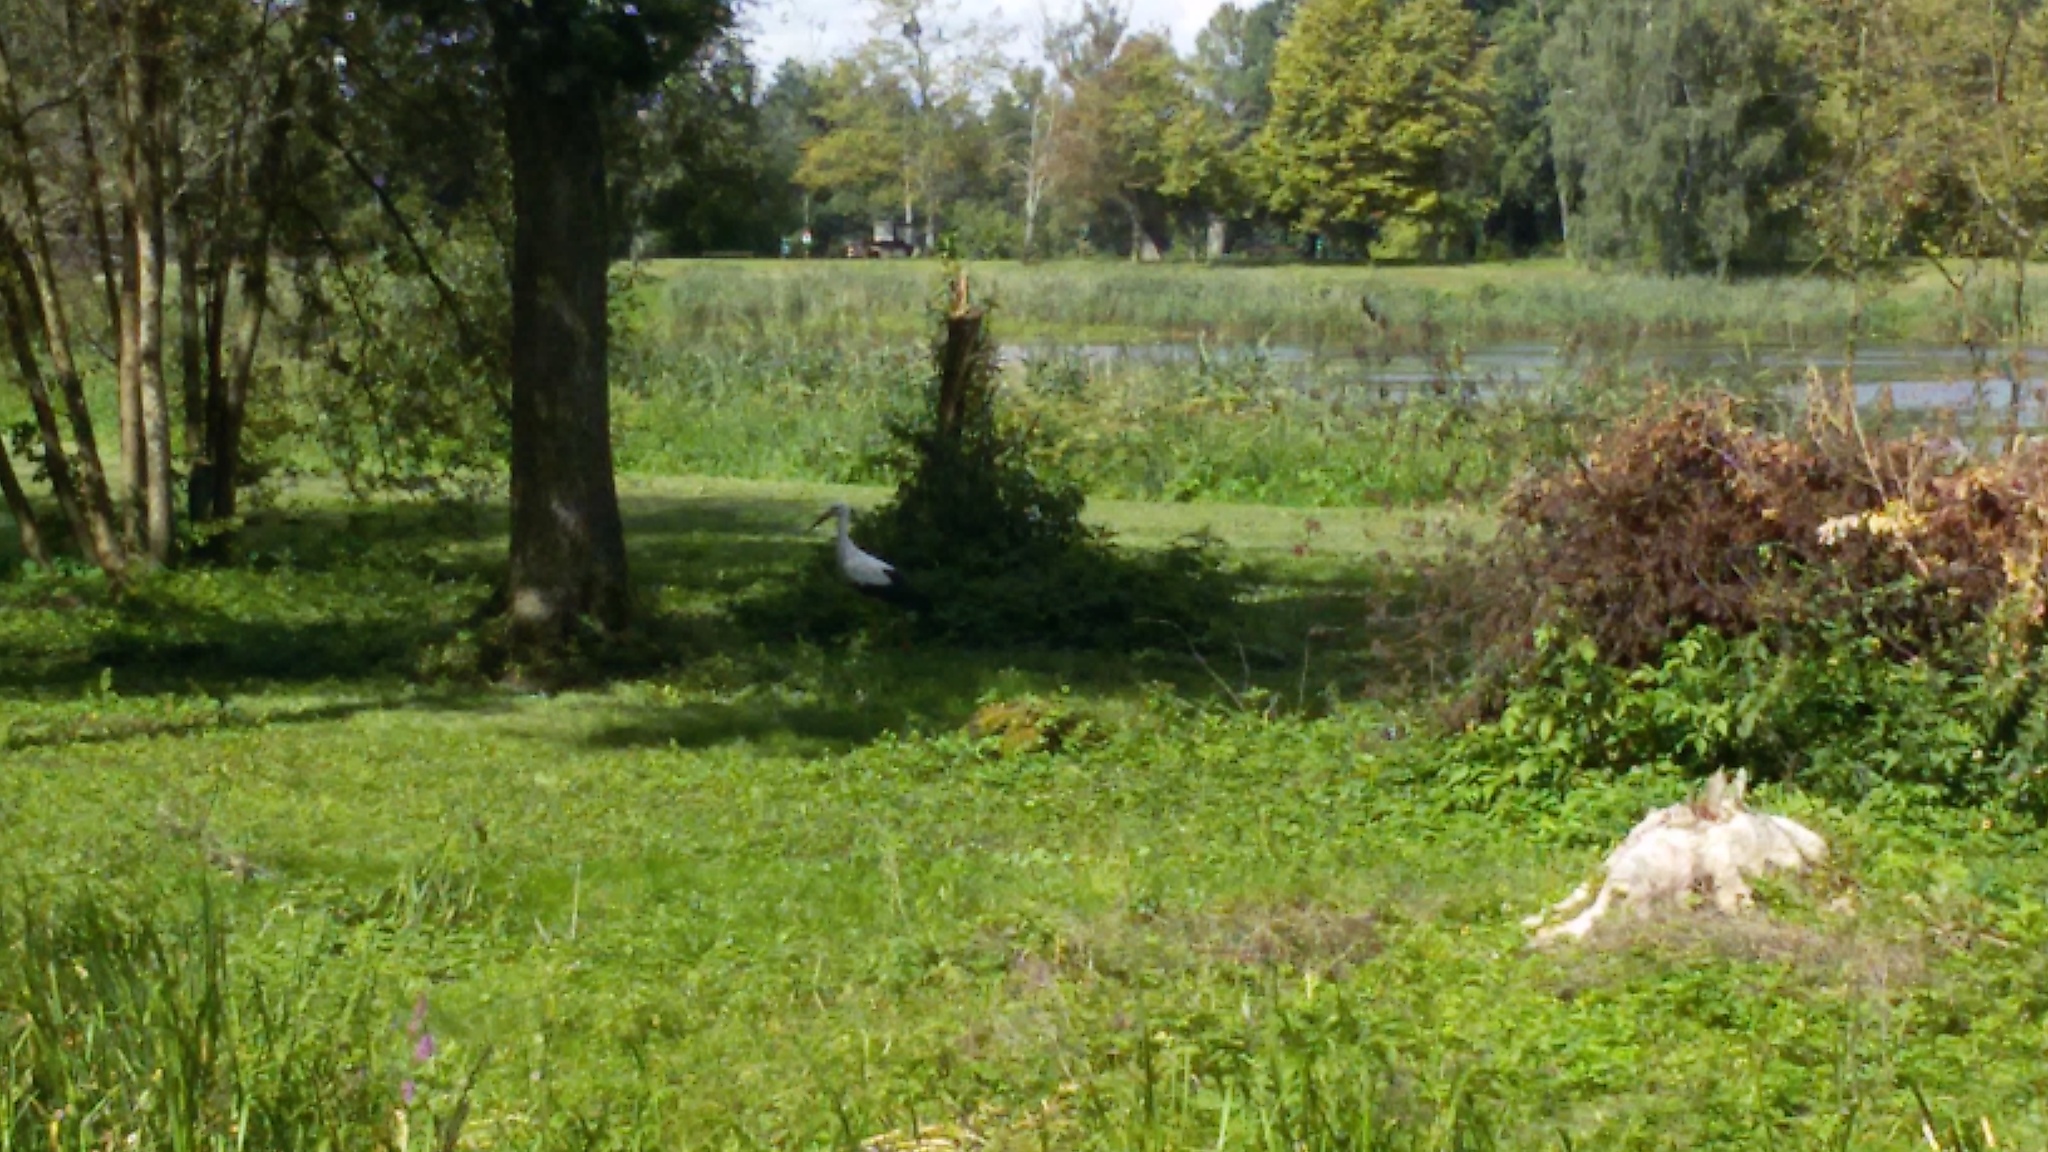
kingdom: Animalia
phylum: Chordata
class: Aves
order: Ciconiiformes
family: Ciconiidae
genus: Ciconia
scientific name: Ciconia ciconia
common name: White stork
